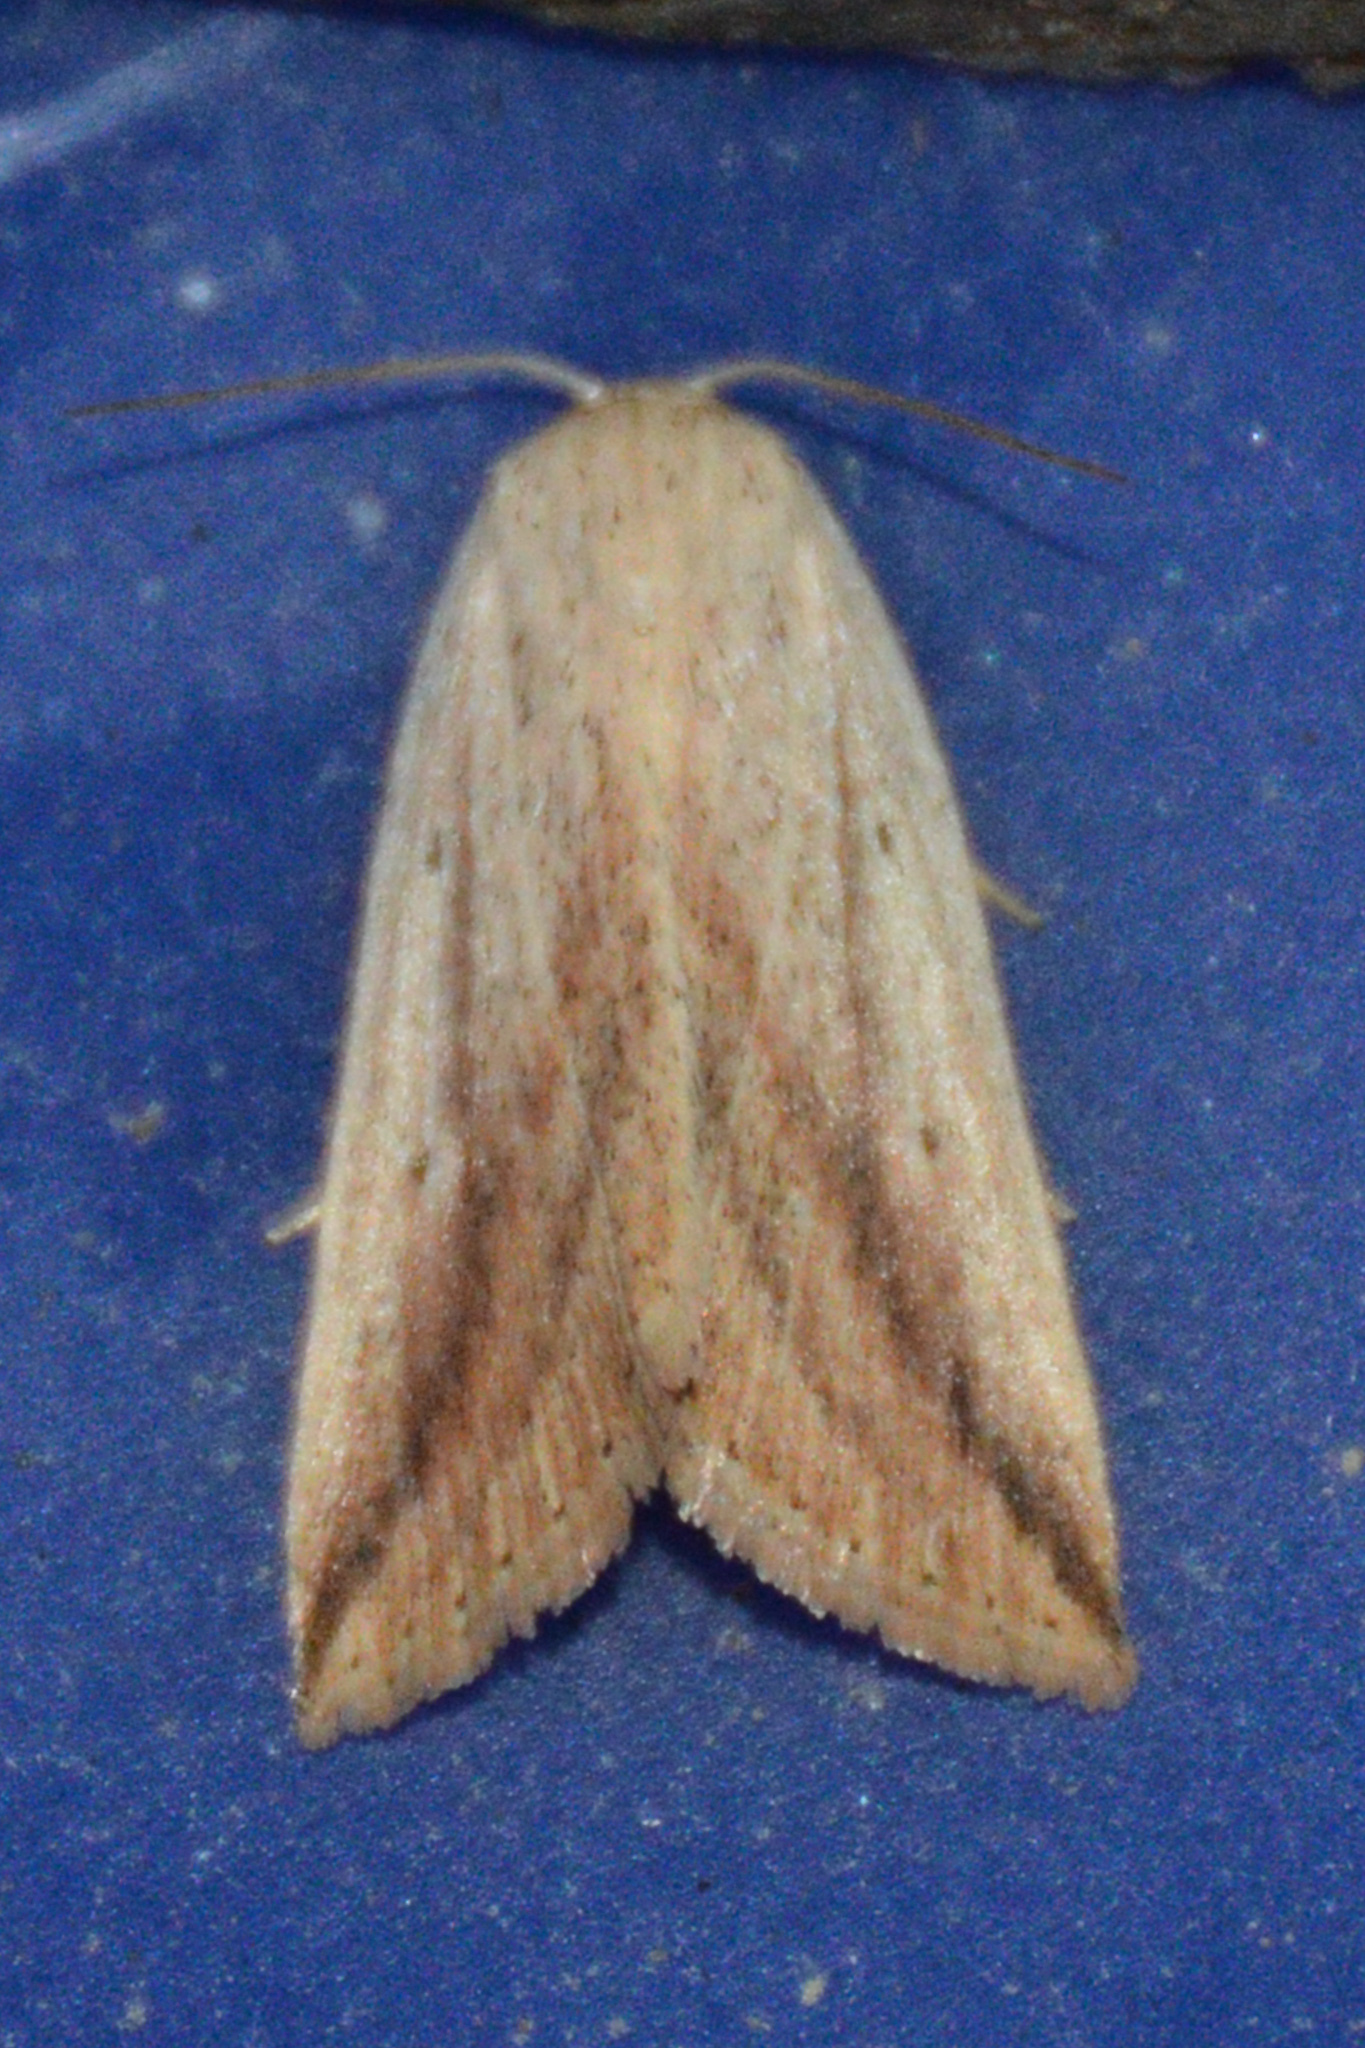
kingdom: Animalia
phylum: Arthropoda
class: Insecta
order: Lepidoptera
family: Noctuidae
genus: Amolita
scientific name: Amolita fessa
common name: Feeble grass moth
